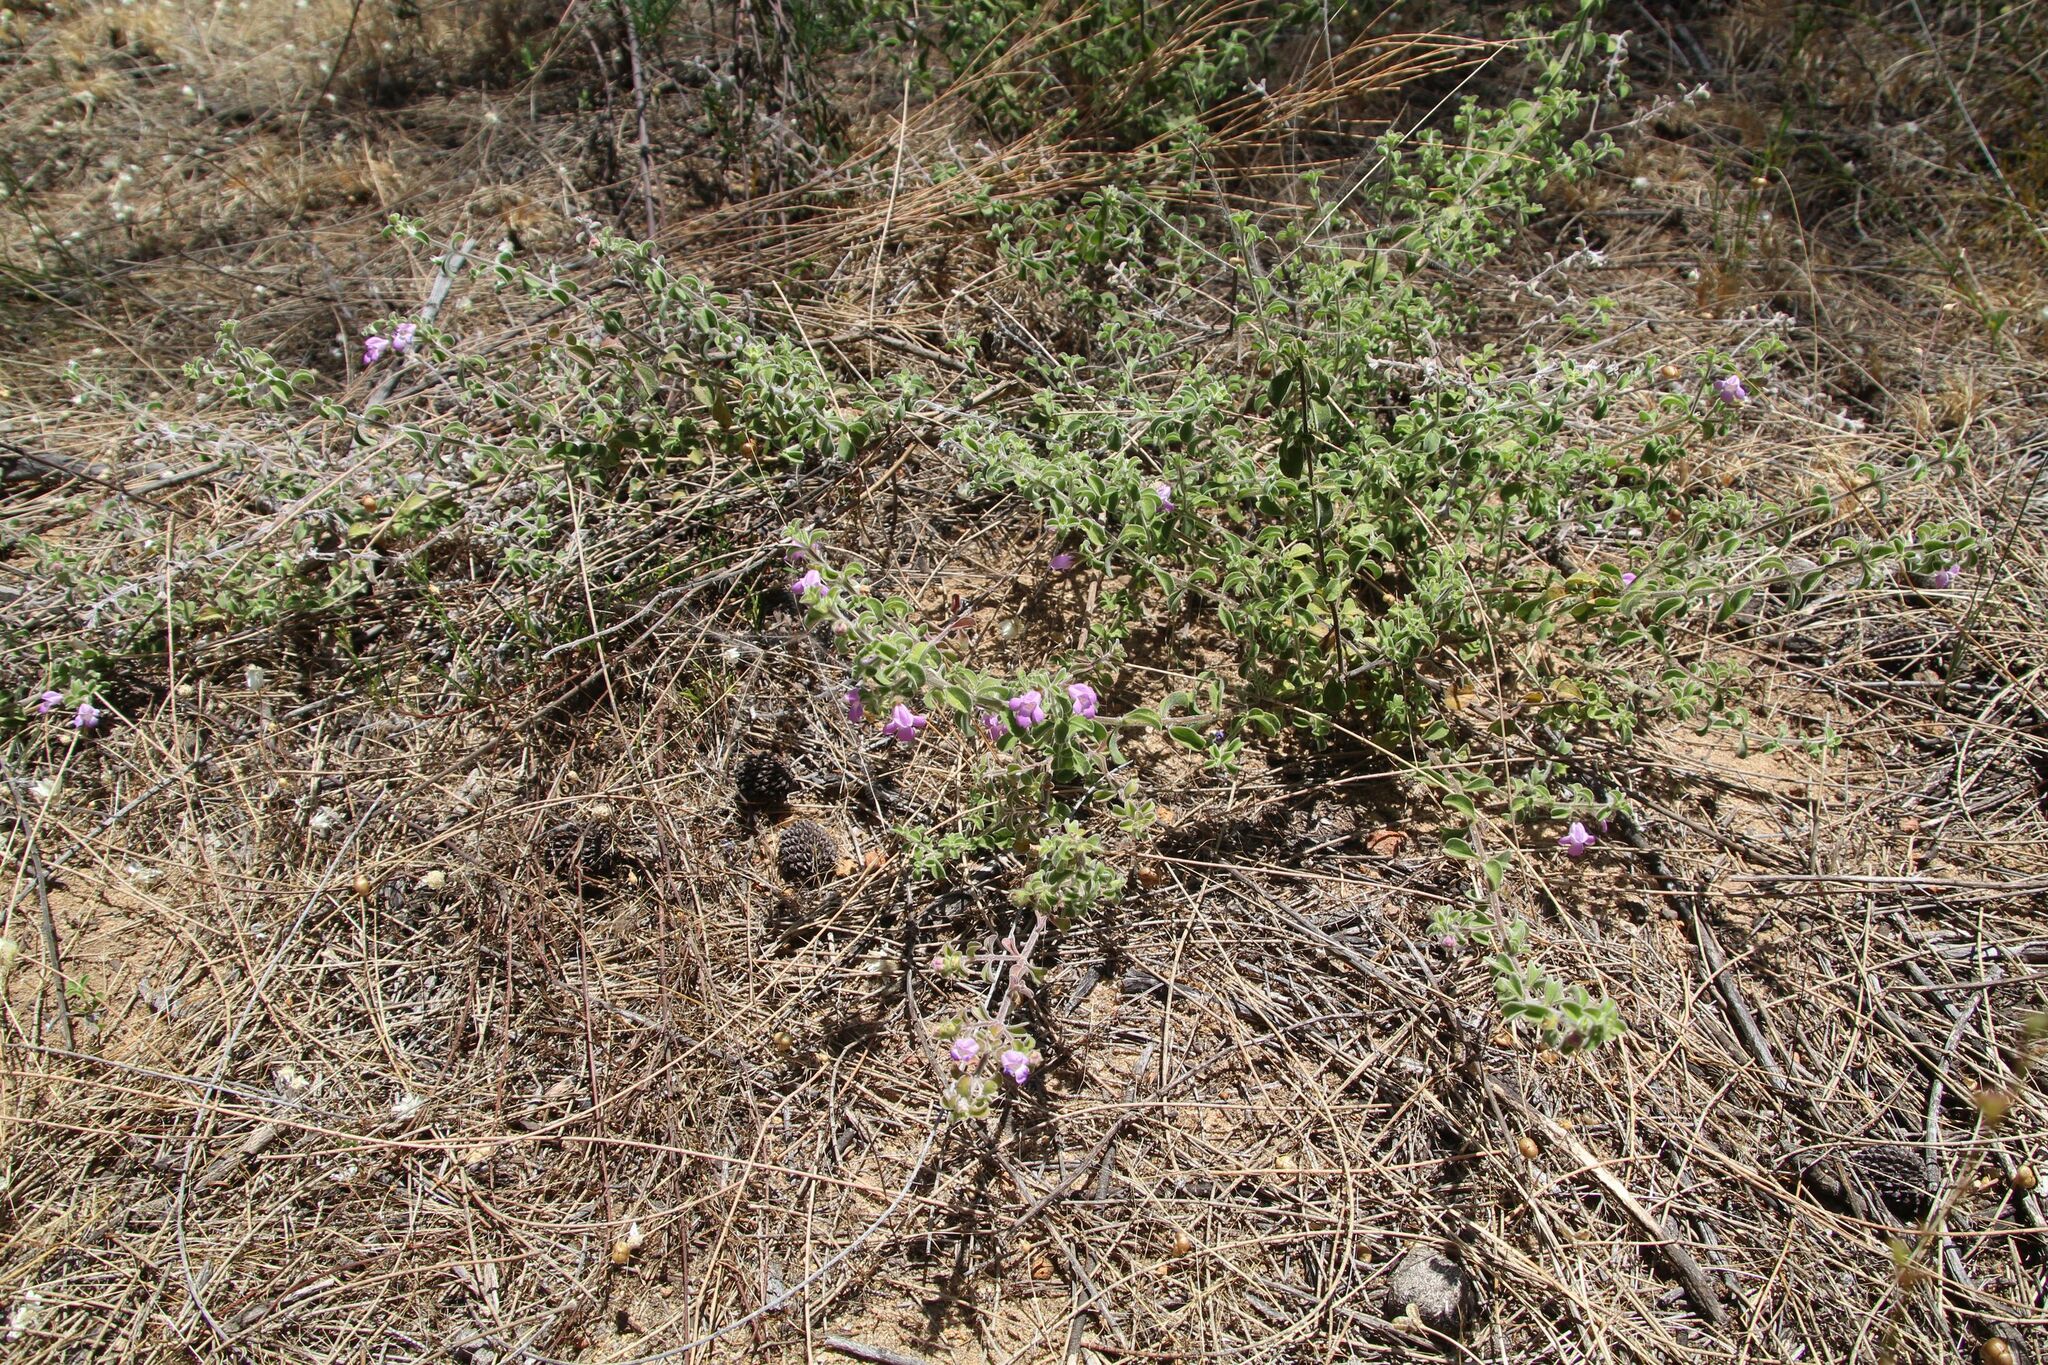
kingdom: Plantae
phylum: Tracheophyta
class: Magnoliopsida
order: Lamiales
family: Lamiaceae
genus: Hemigenia
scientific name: Hemigenia incana
